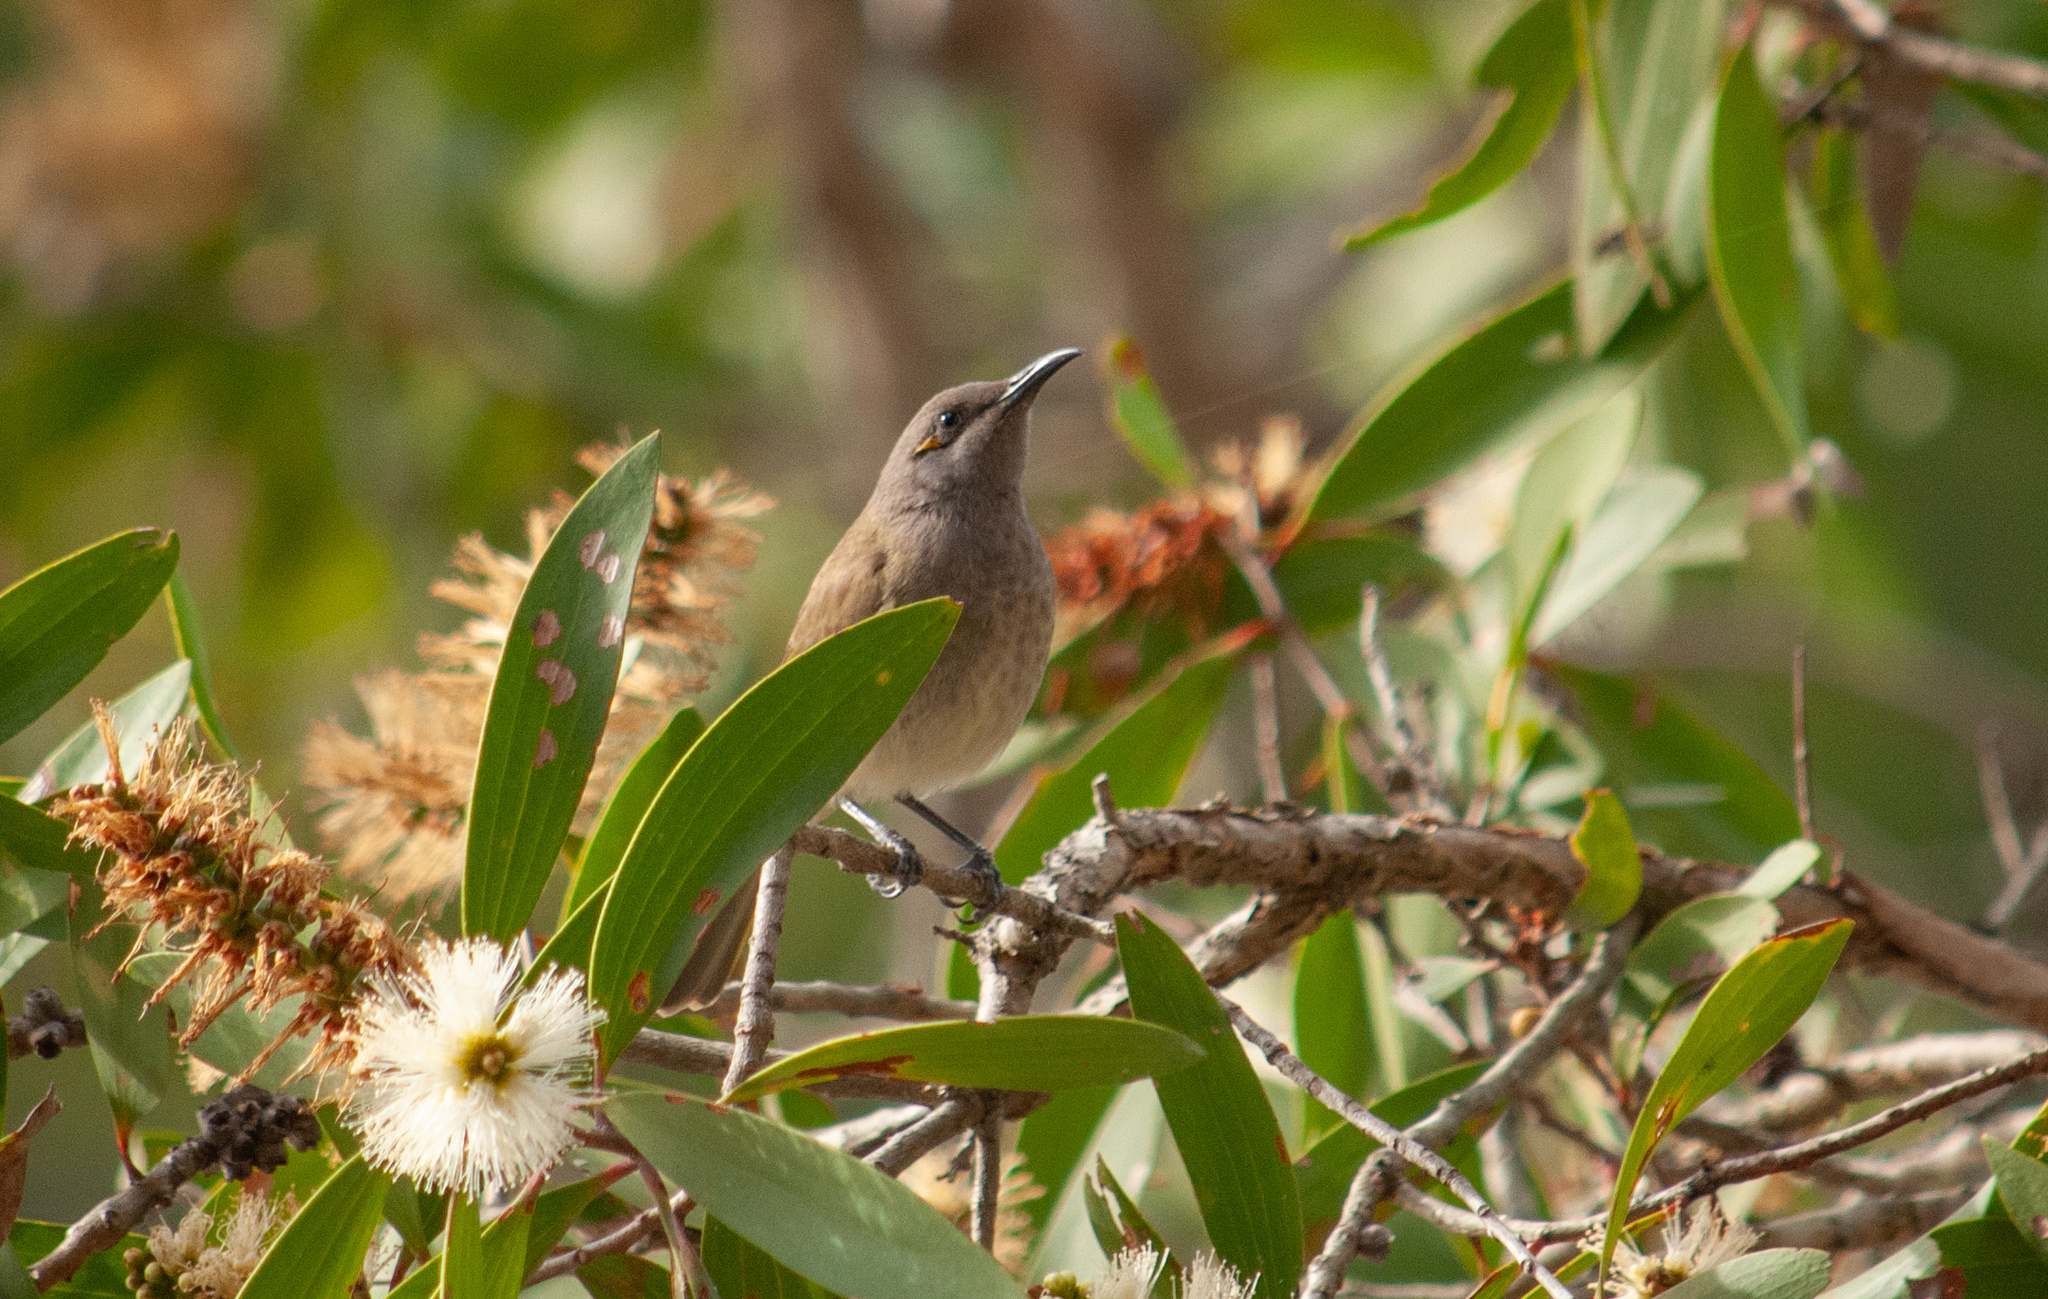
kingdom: Animalia
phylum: Chordata
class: Aves
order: Passeriformes
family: Meliphagidae
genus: Lichmera
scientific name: Lichmera indistincta
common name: Brown honeyeater
